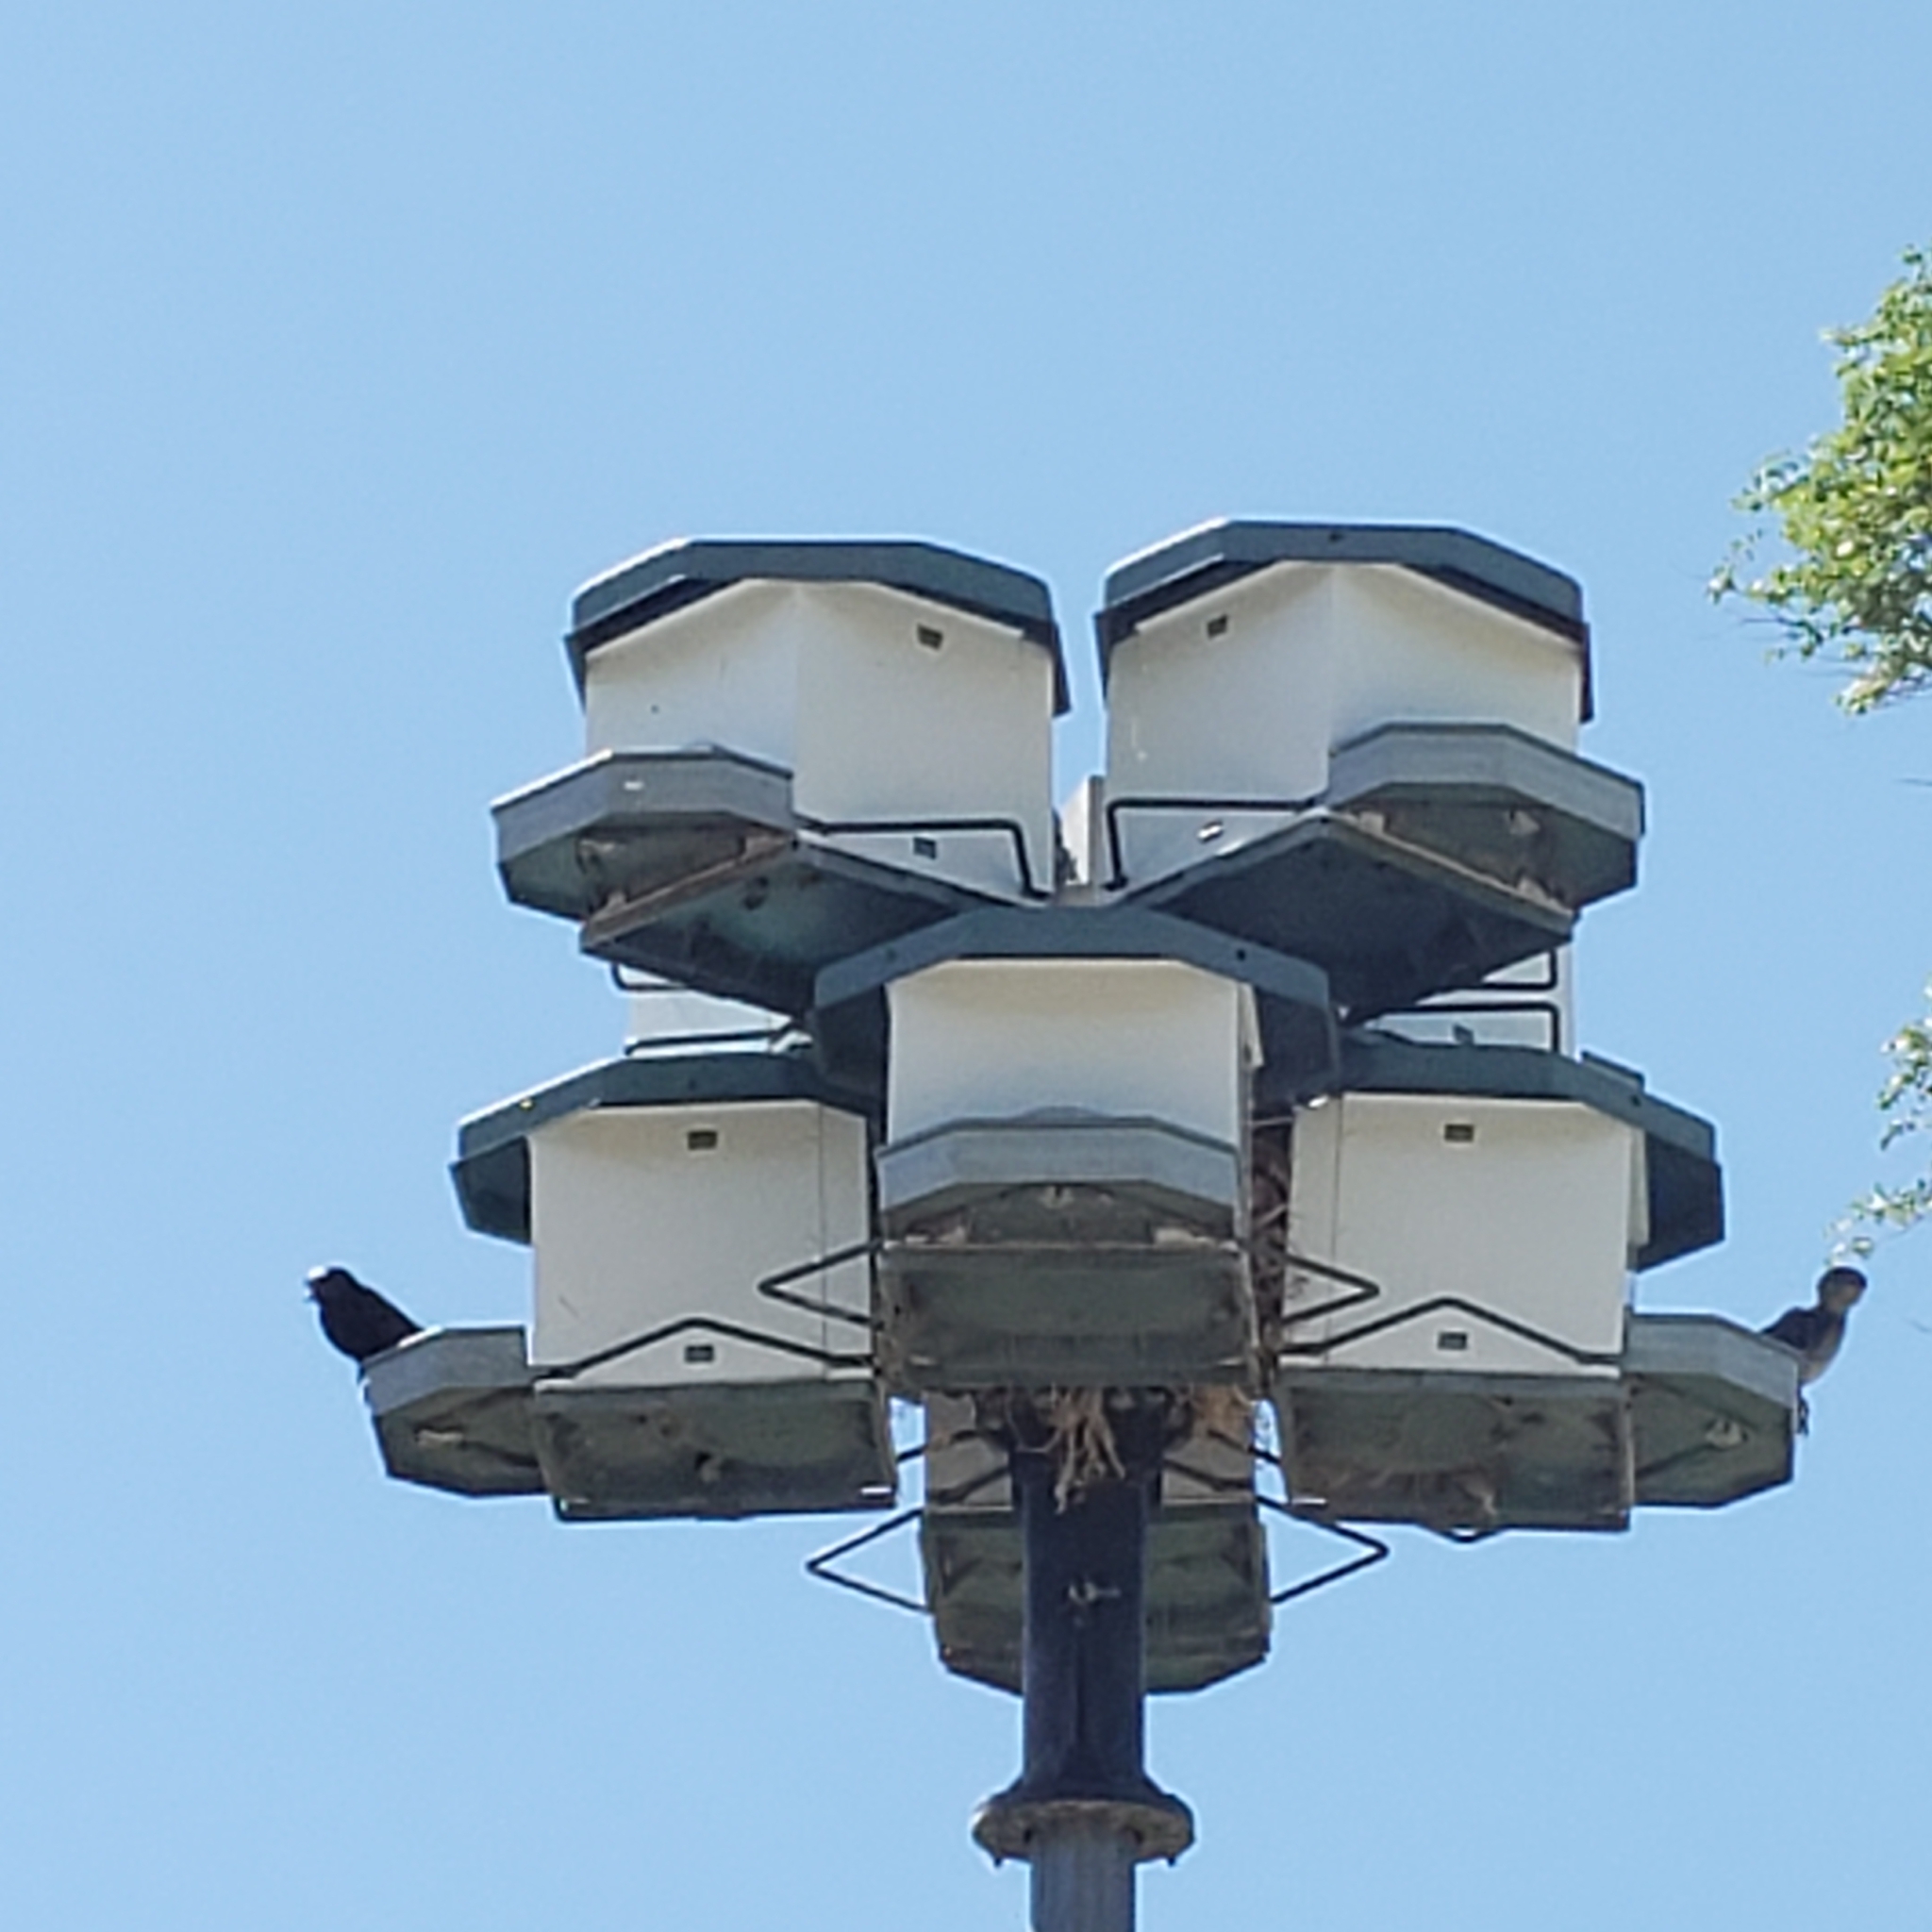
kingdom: Animalia
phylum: Chordata
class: Aves
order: Passeriformes
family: Hirundinidae
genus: Progne
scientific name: Progne subis
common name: Purple martin
